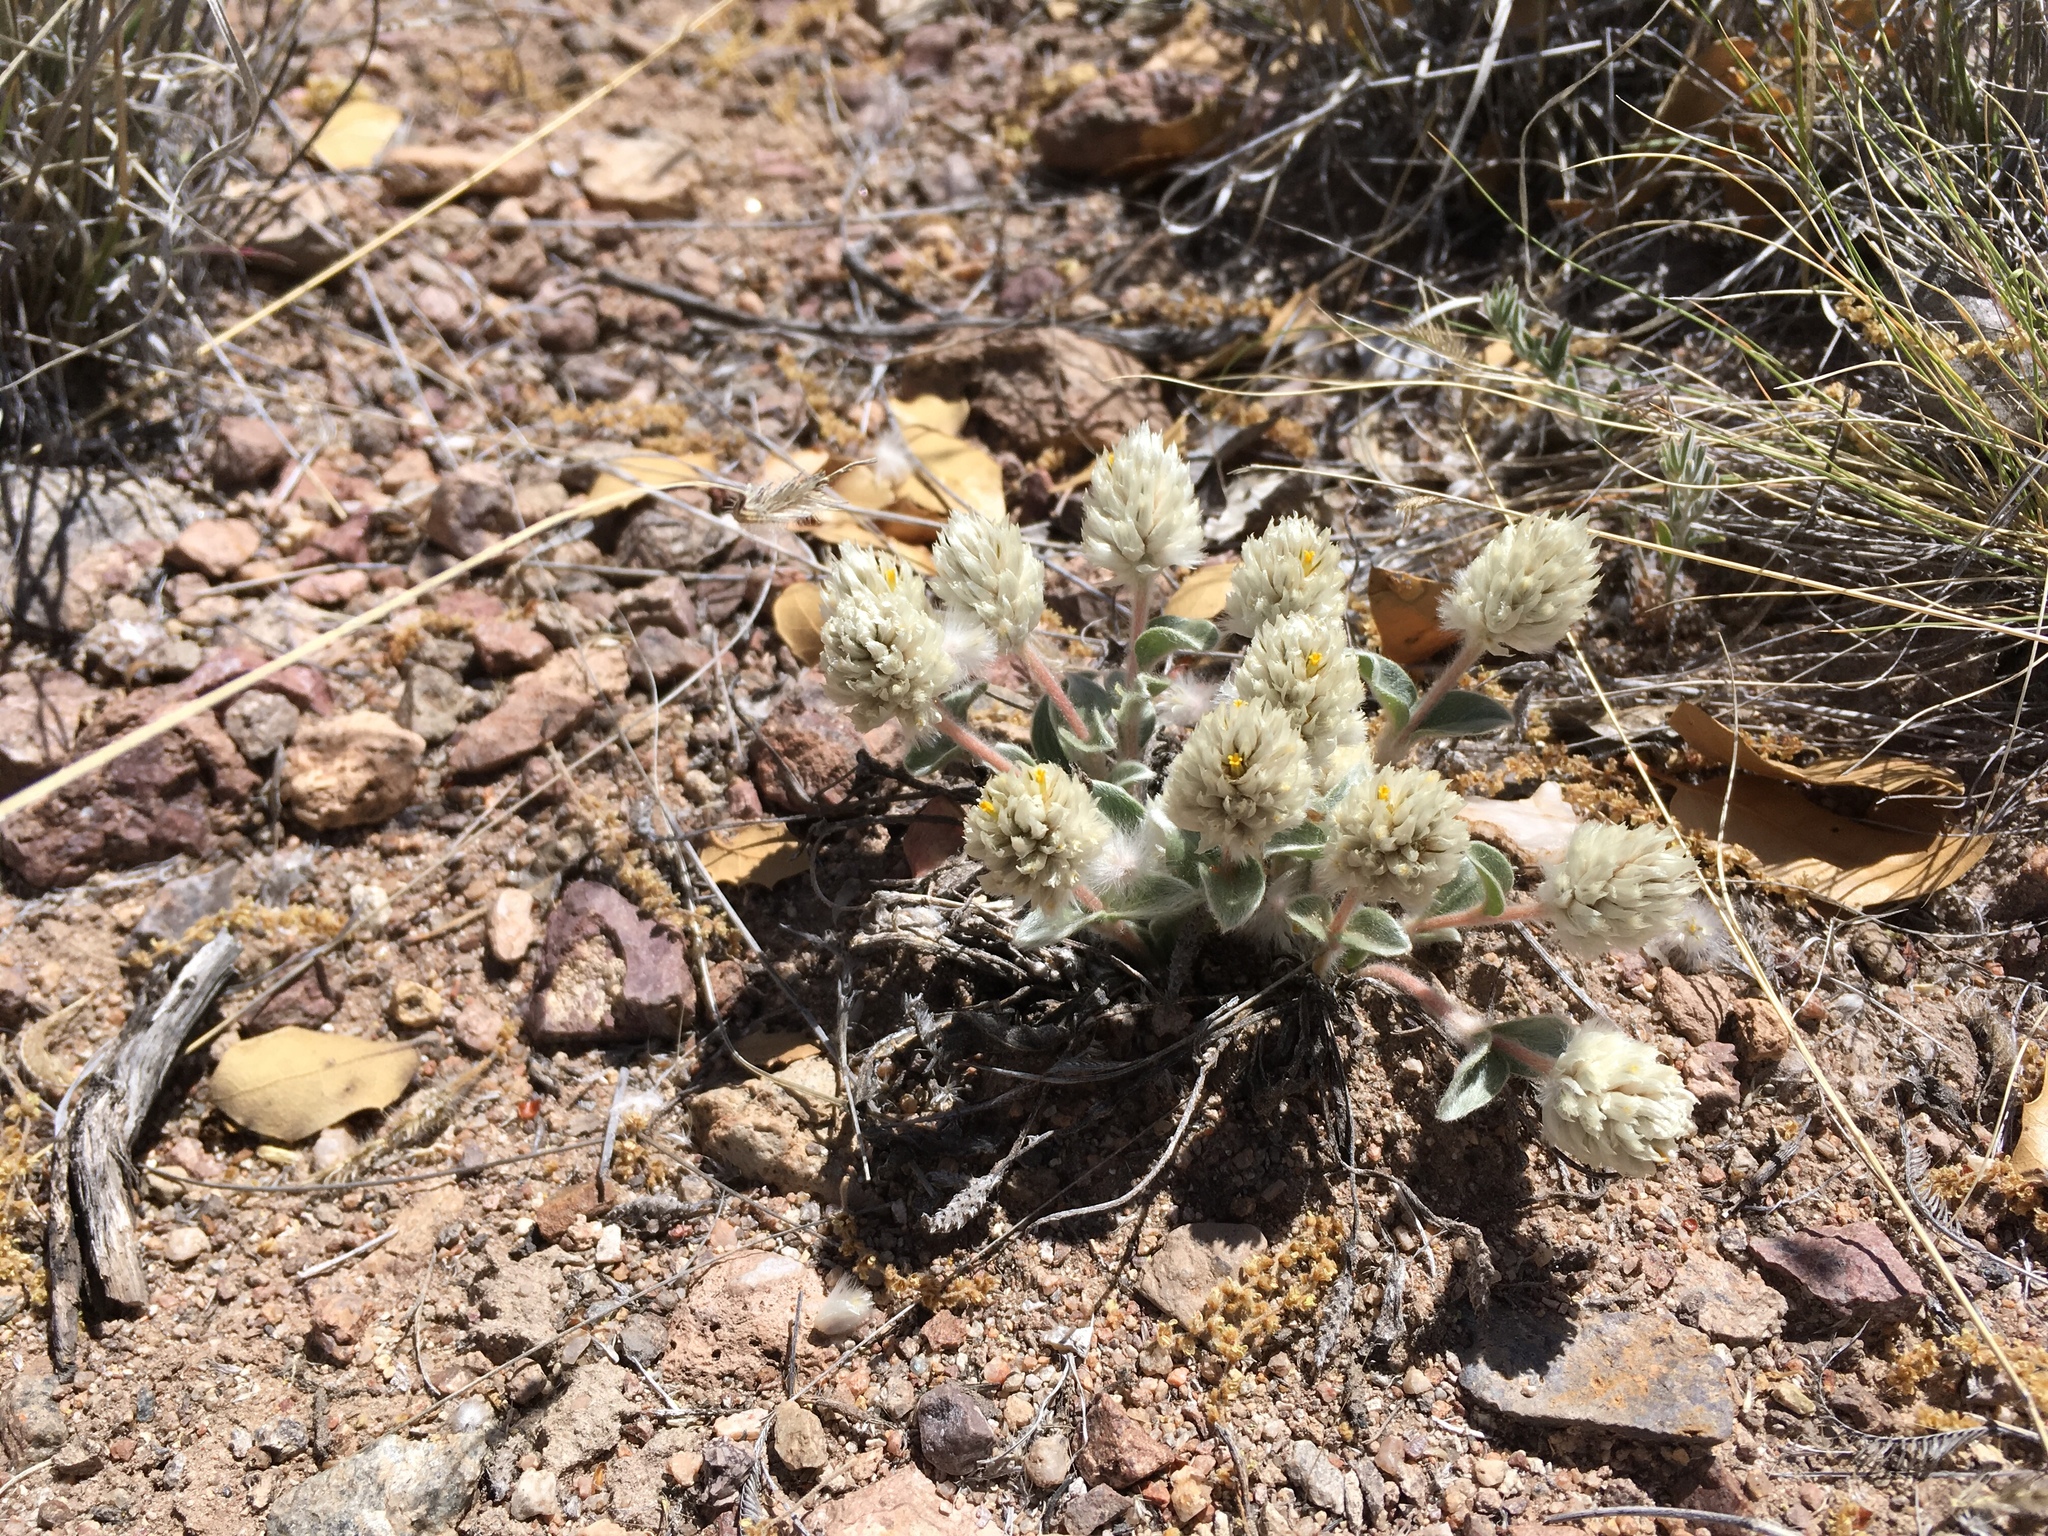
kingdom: Plantae
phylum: Tracheophyta
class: Magnoliopsida
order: Caryophyllales
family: Amaranthaceae
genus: Gomphrena
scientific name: Gomphrena caespitosa
